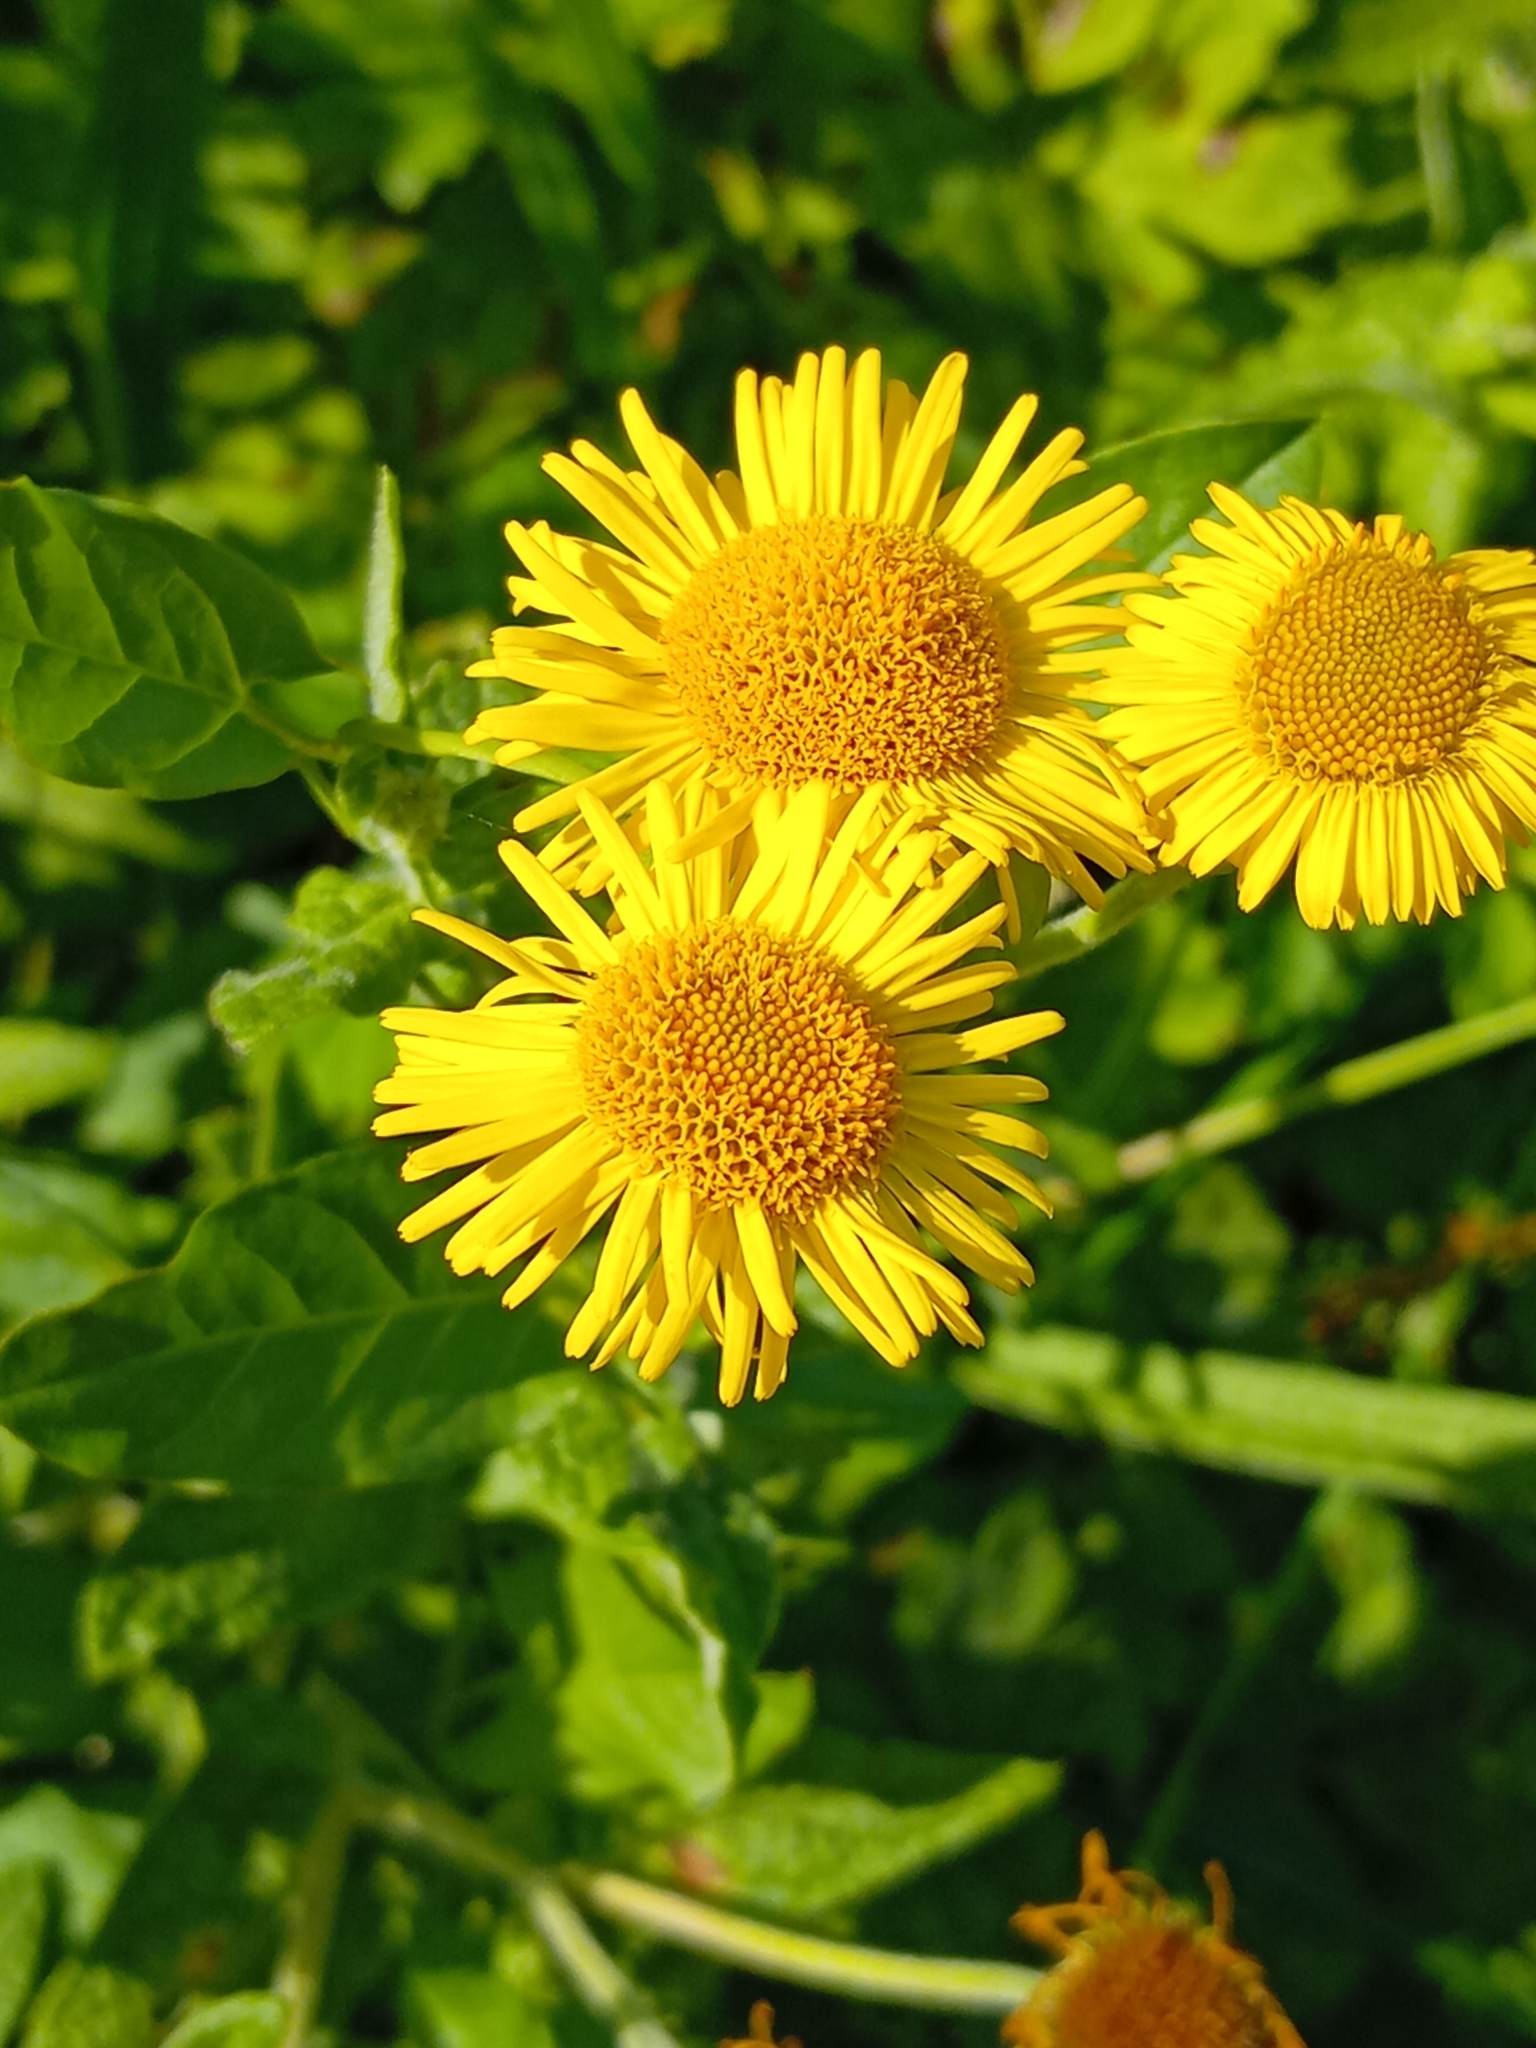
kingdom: Plantae
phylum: Tracheophyta
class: Magnoliopsida
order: Asterales
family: Asteraceae
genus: Pulicaria
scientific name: Pulicaria dysenterica
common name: Common fleabane
